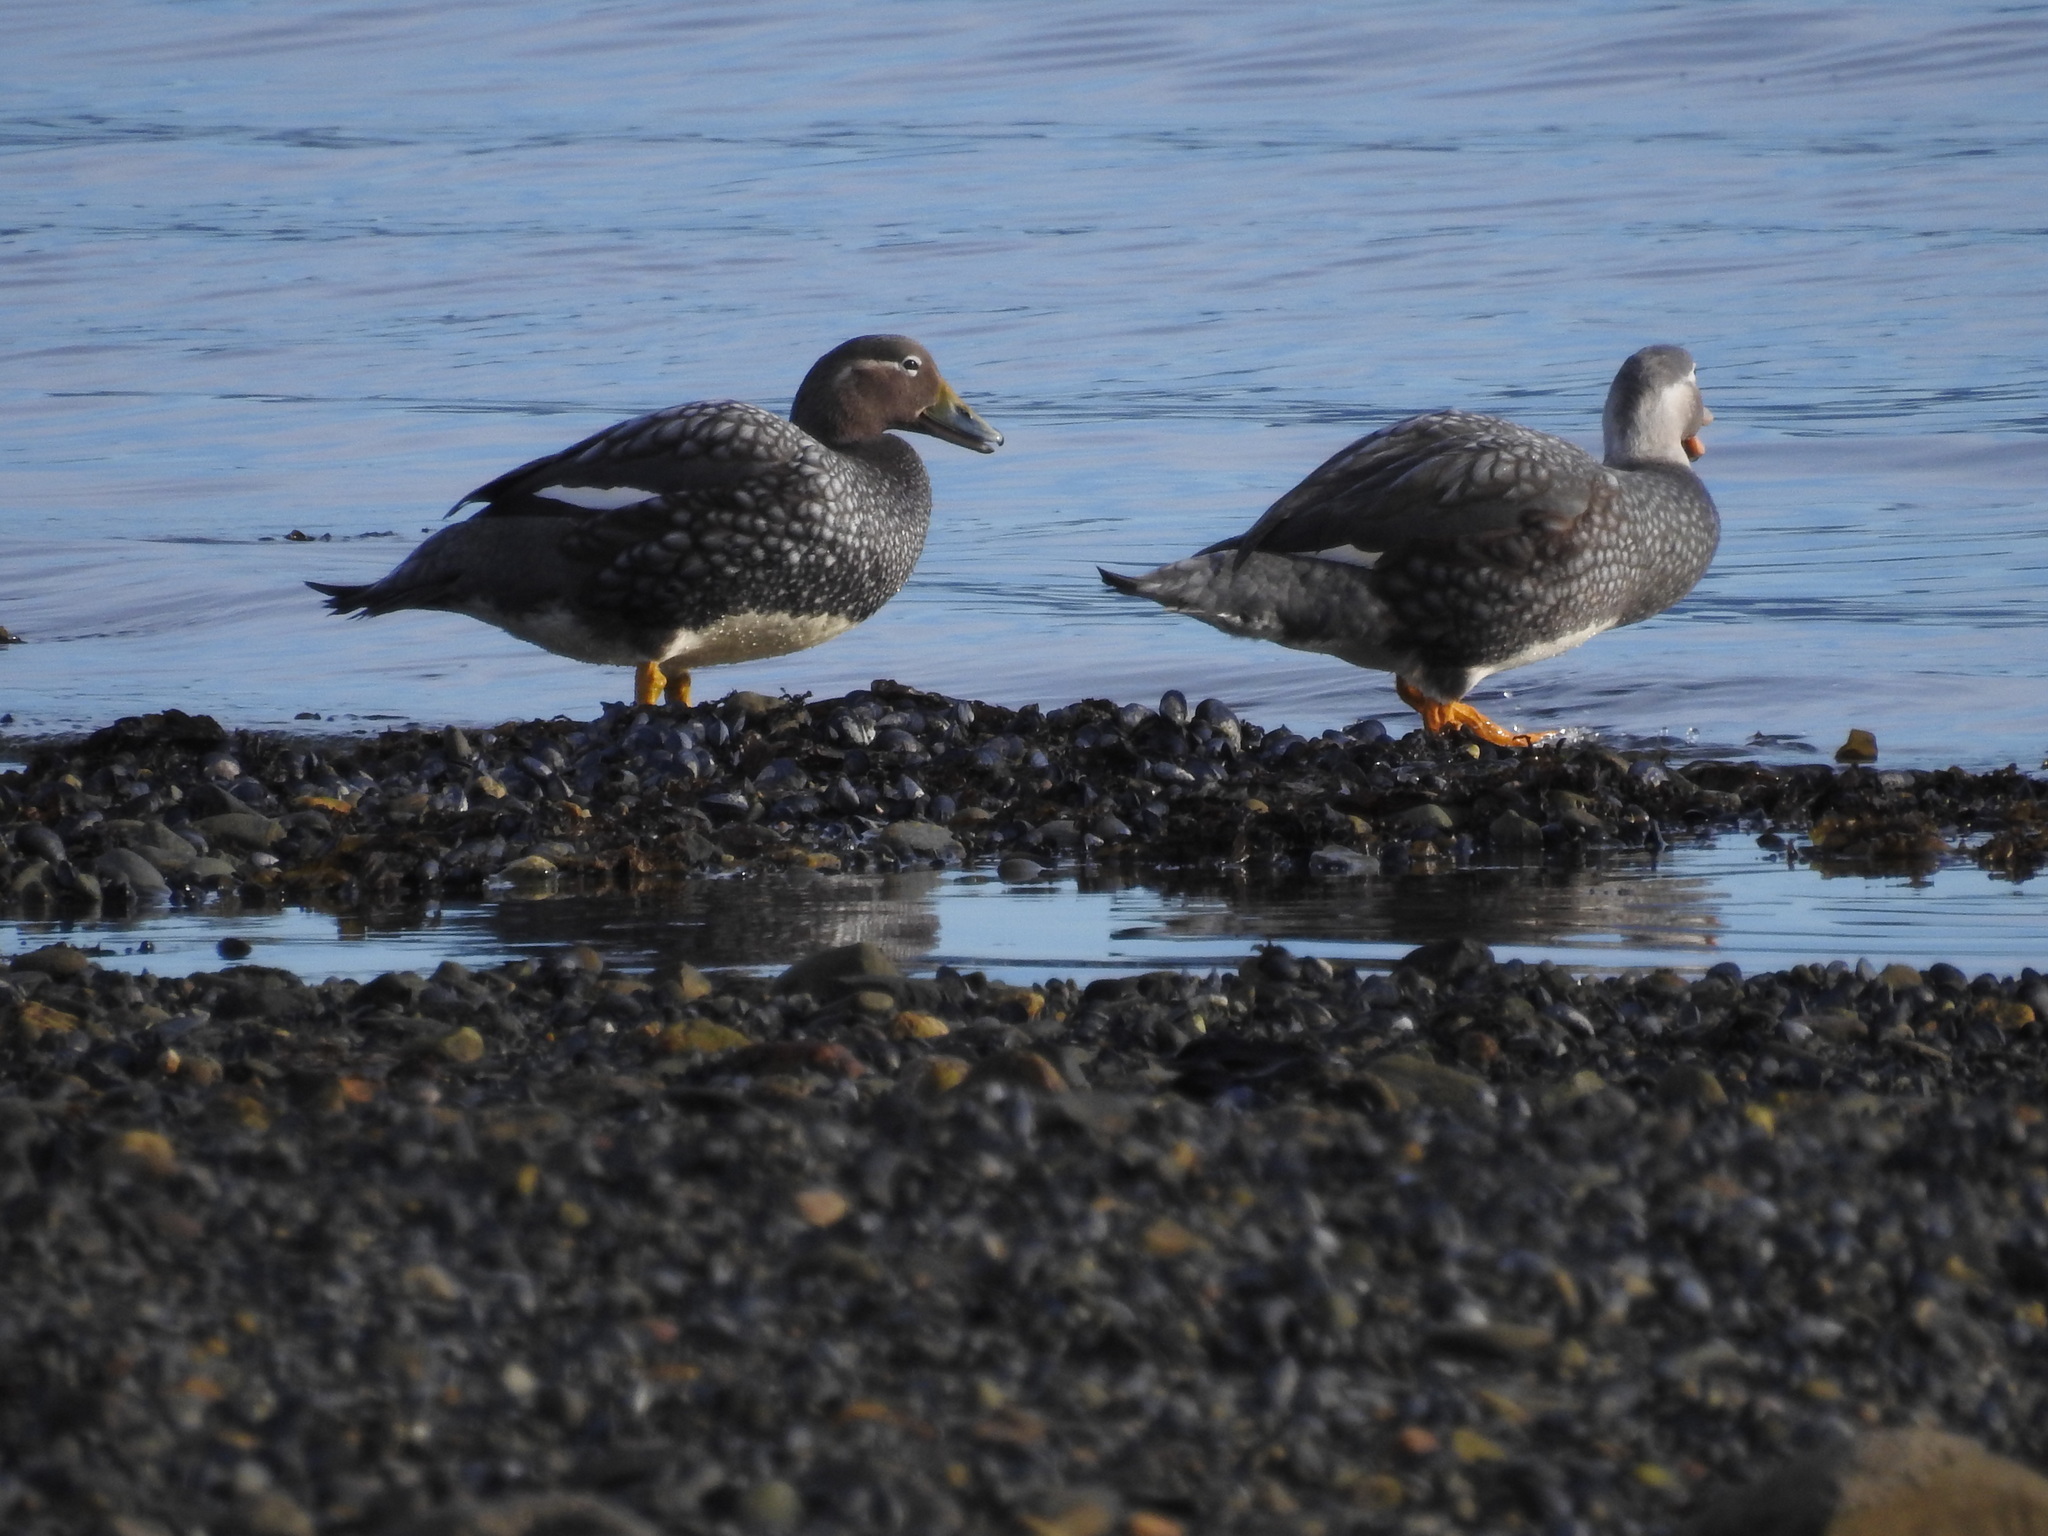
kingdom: Animalia
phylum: Chordata
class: Aves
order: Anseriformes
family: Anatidae
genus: Tachyeres
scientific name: Tachyeres patachonicus
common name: Flying steamer duck
